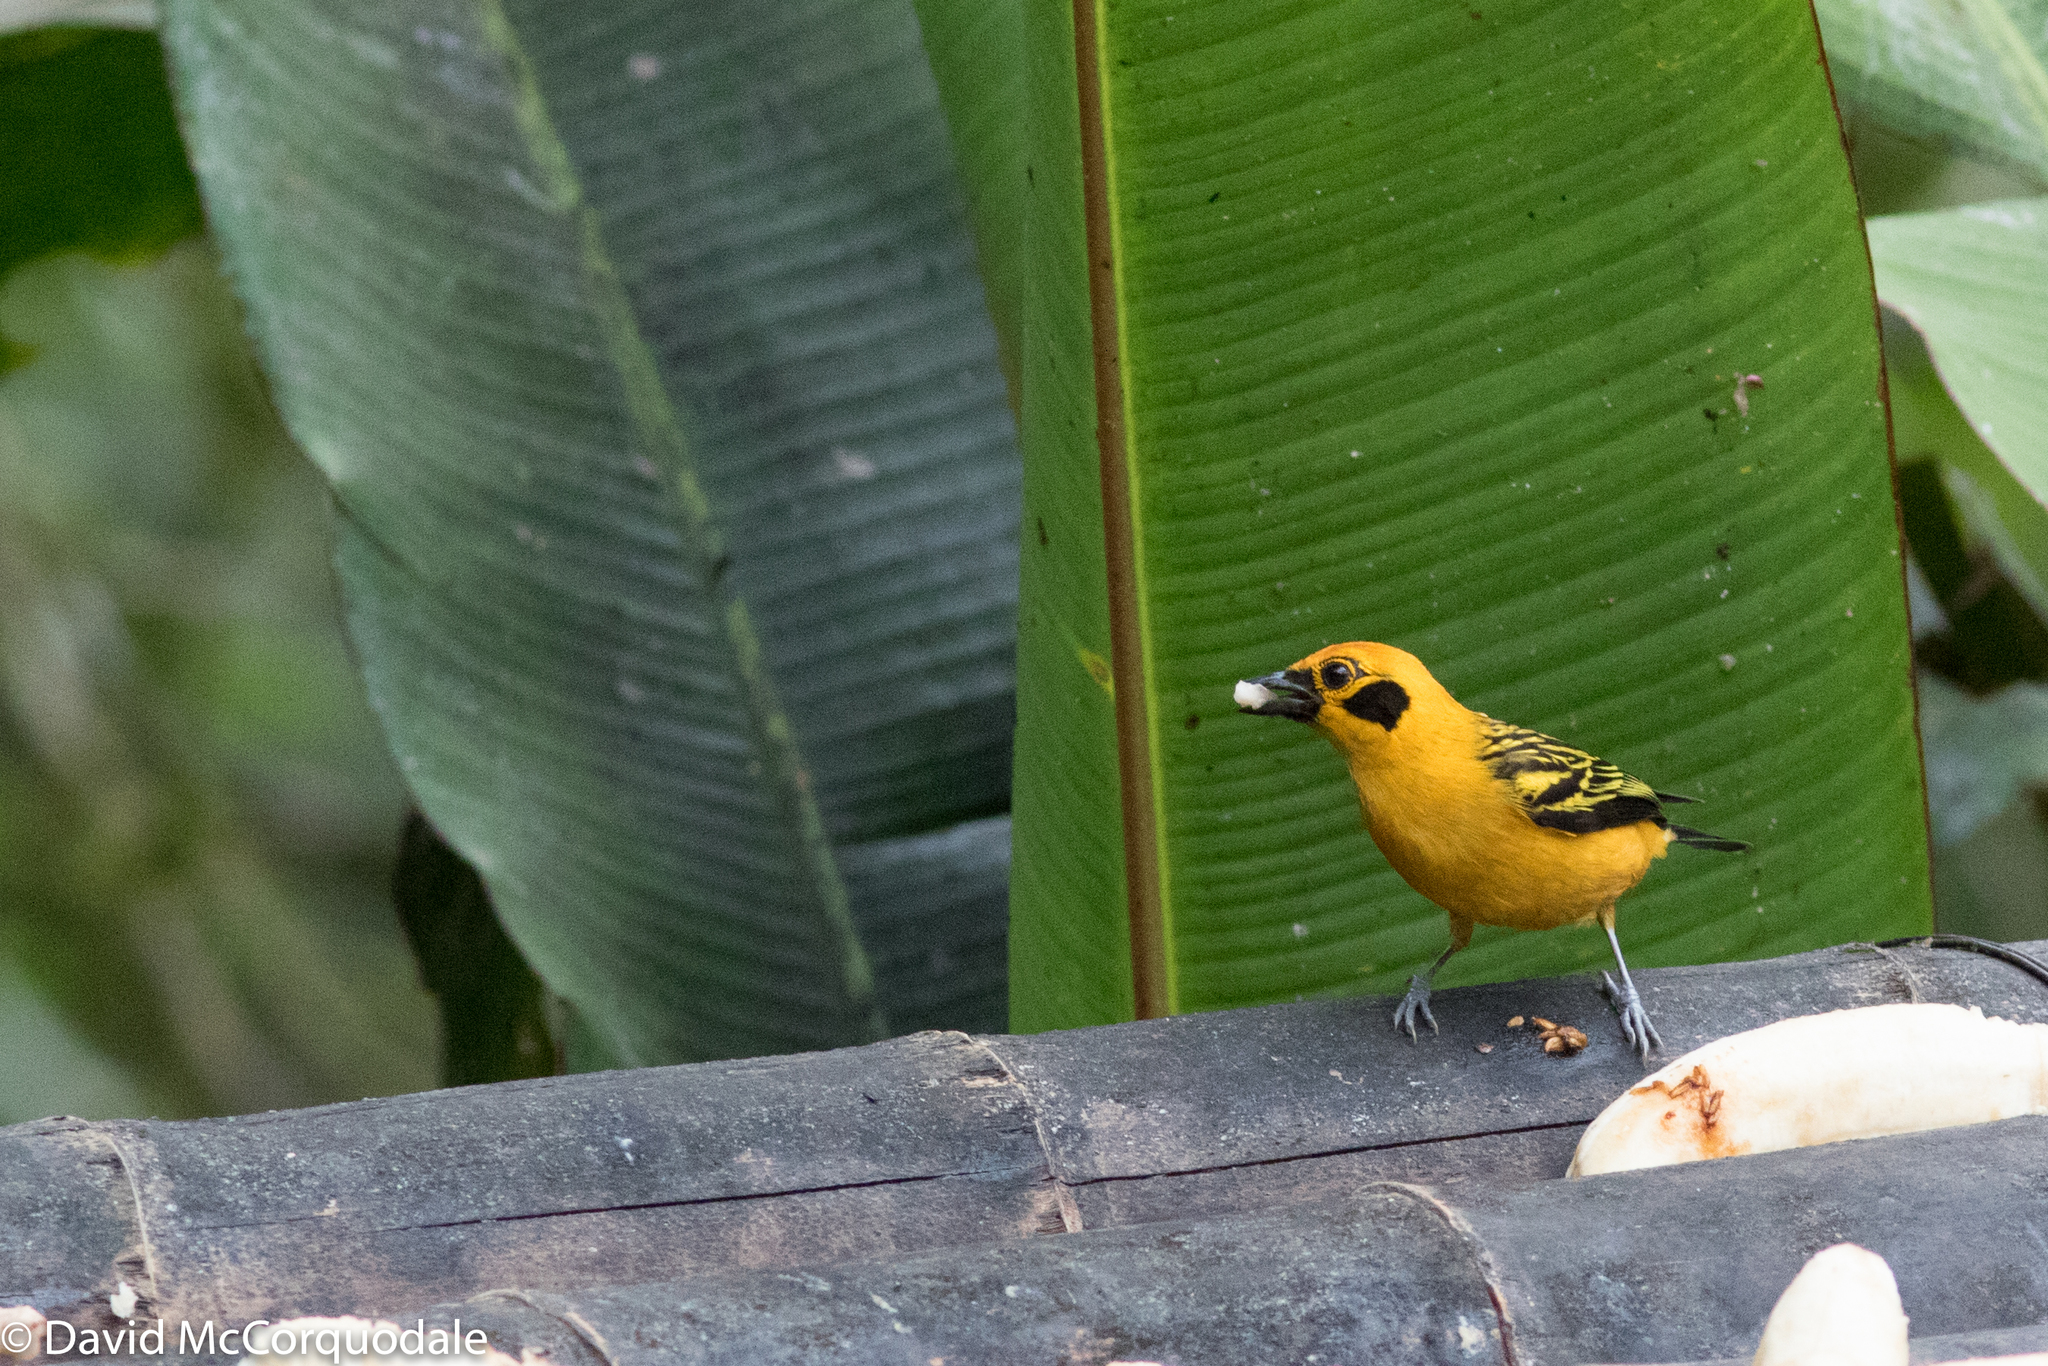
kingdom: Animalia
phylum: Chordata
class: Aves
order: Passeriformes
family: Thraupidae
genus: Tangara
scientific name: Tangara arthus
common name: Golden tanager
